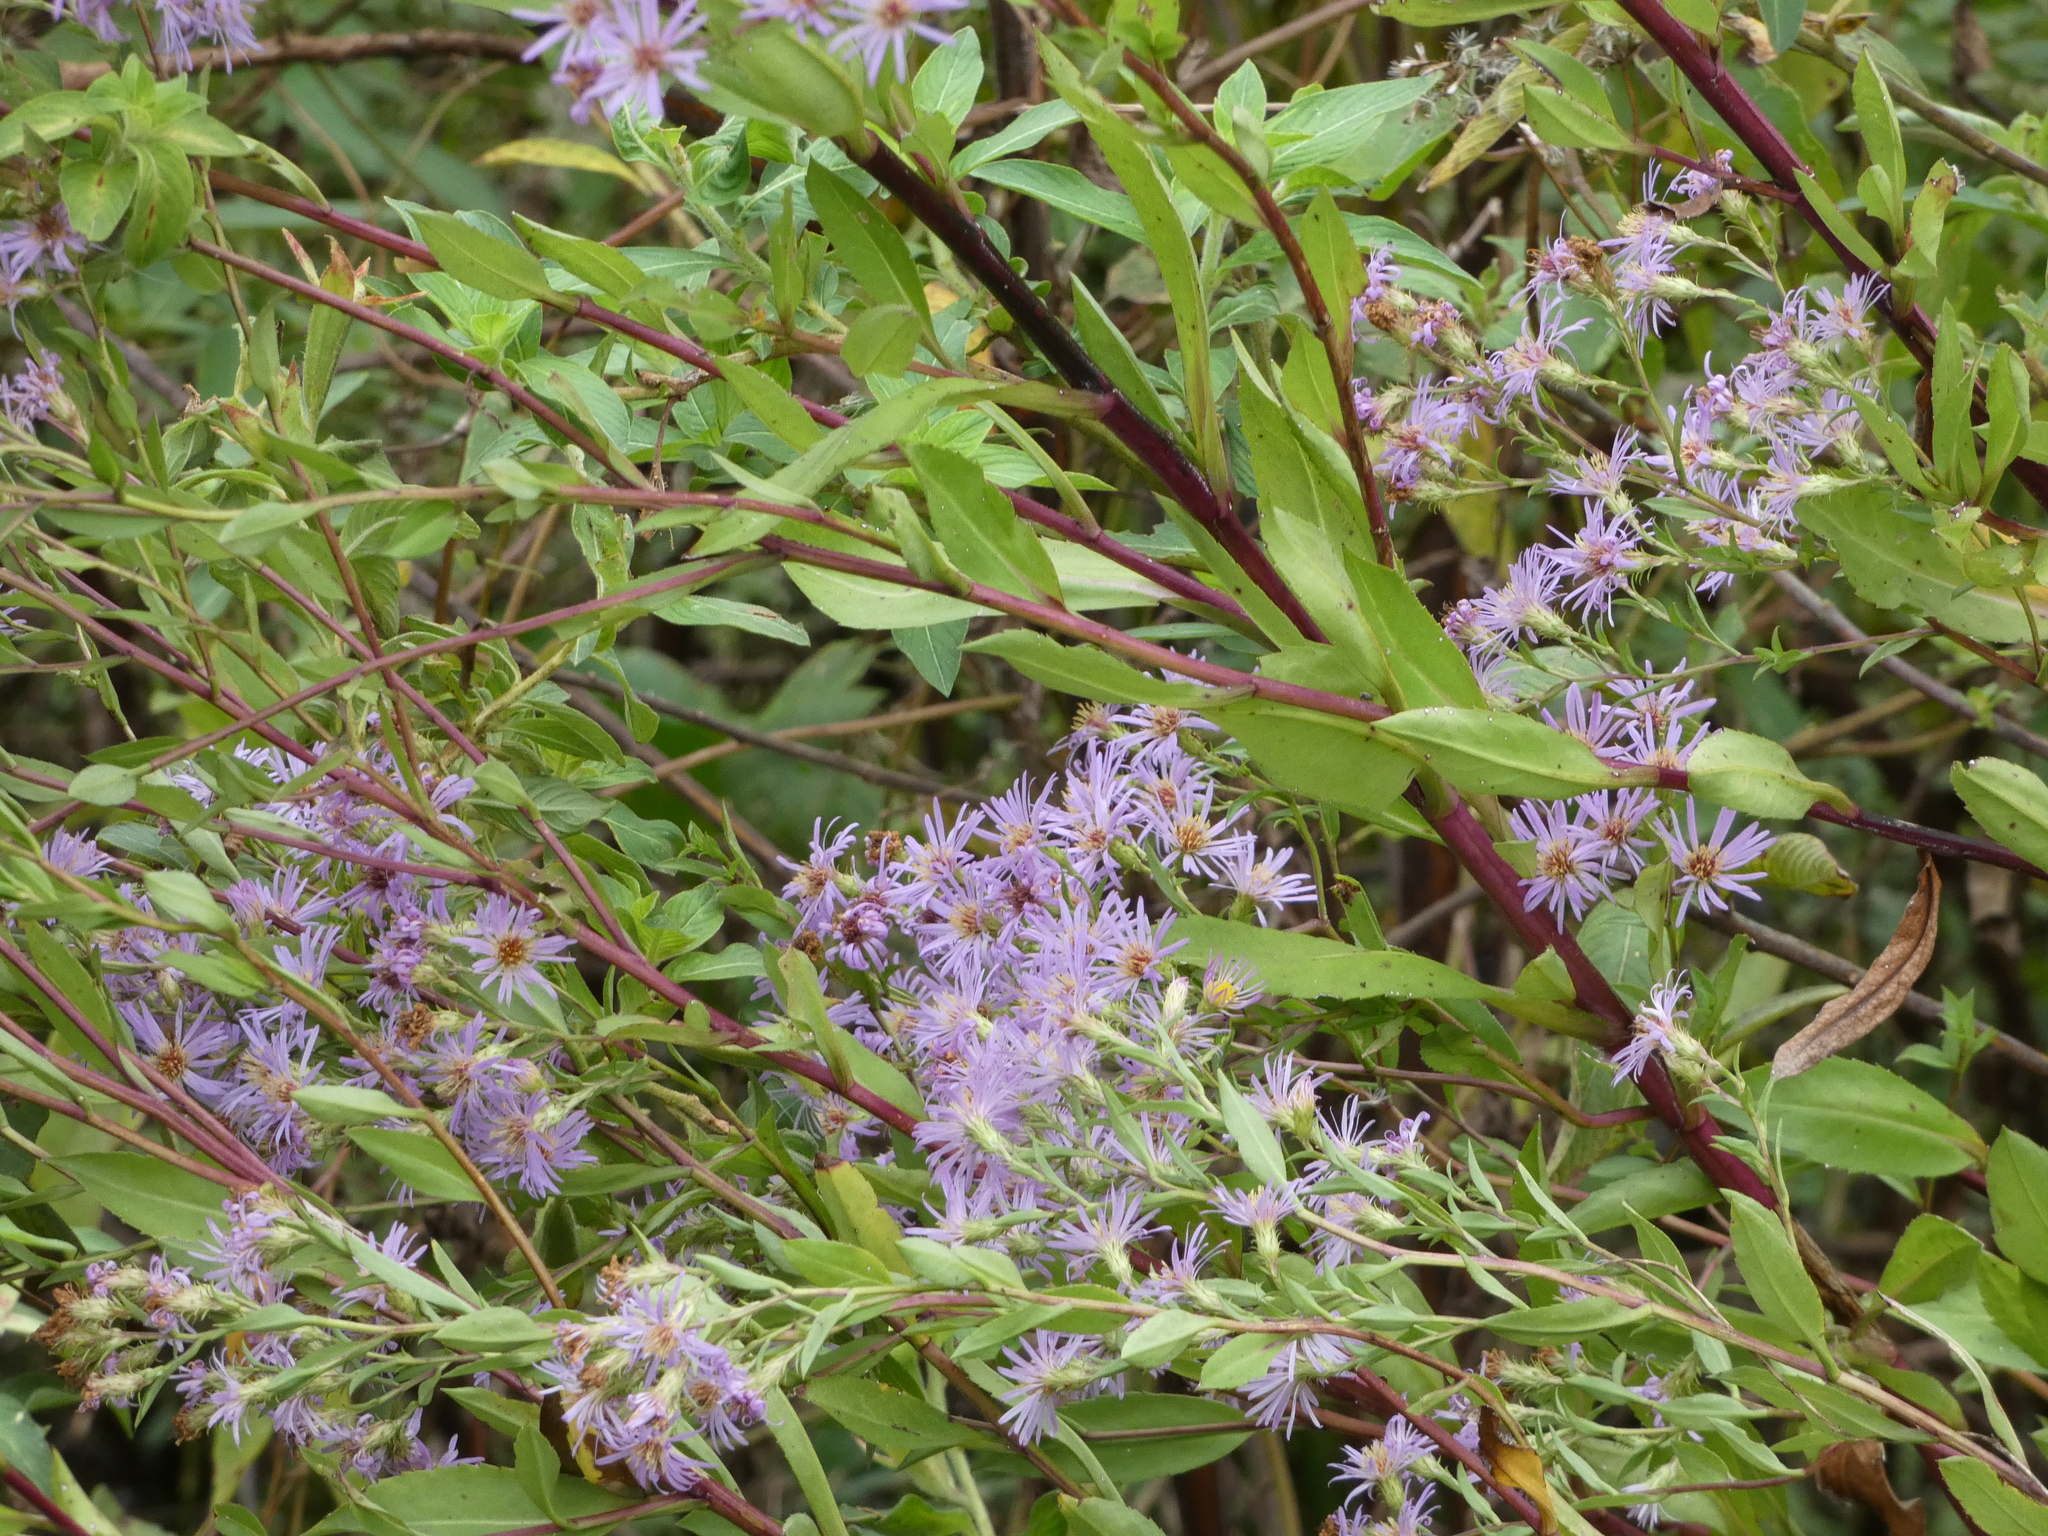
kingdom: Plantae
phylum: Tracheophyta
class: Magnoliopsida
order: Asterales
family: Asteraceae
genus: Symphyotrichum
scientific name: Symphyotrichum elliottii
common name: Southern swamp aster
